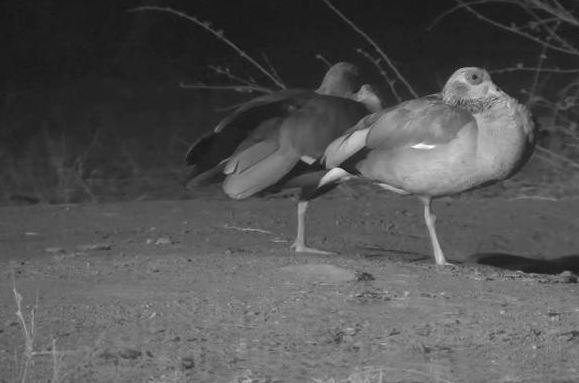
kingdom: Animalia
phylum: Chordata
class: Aves
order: Anseriformes
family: Anatidae
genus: Alopochen
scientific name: Alopochen aegyptiaca
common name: Egyptian goose
